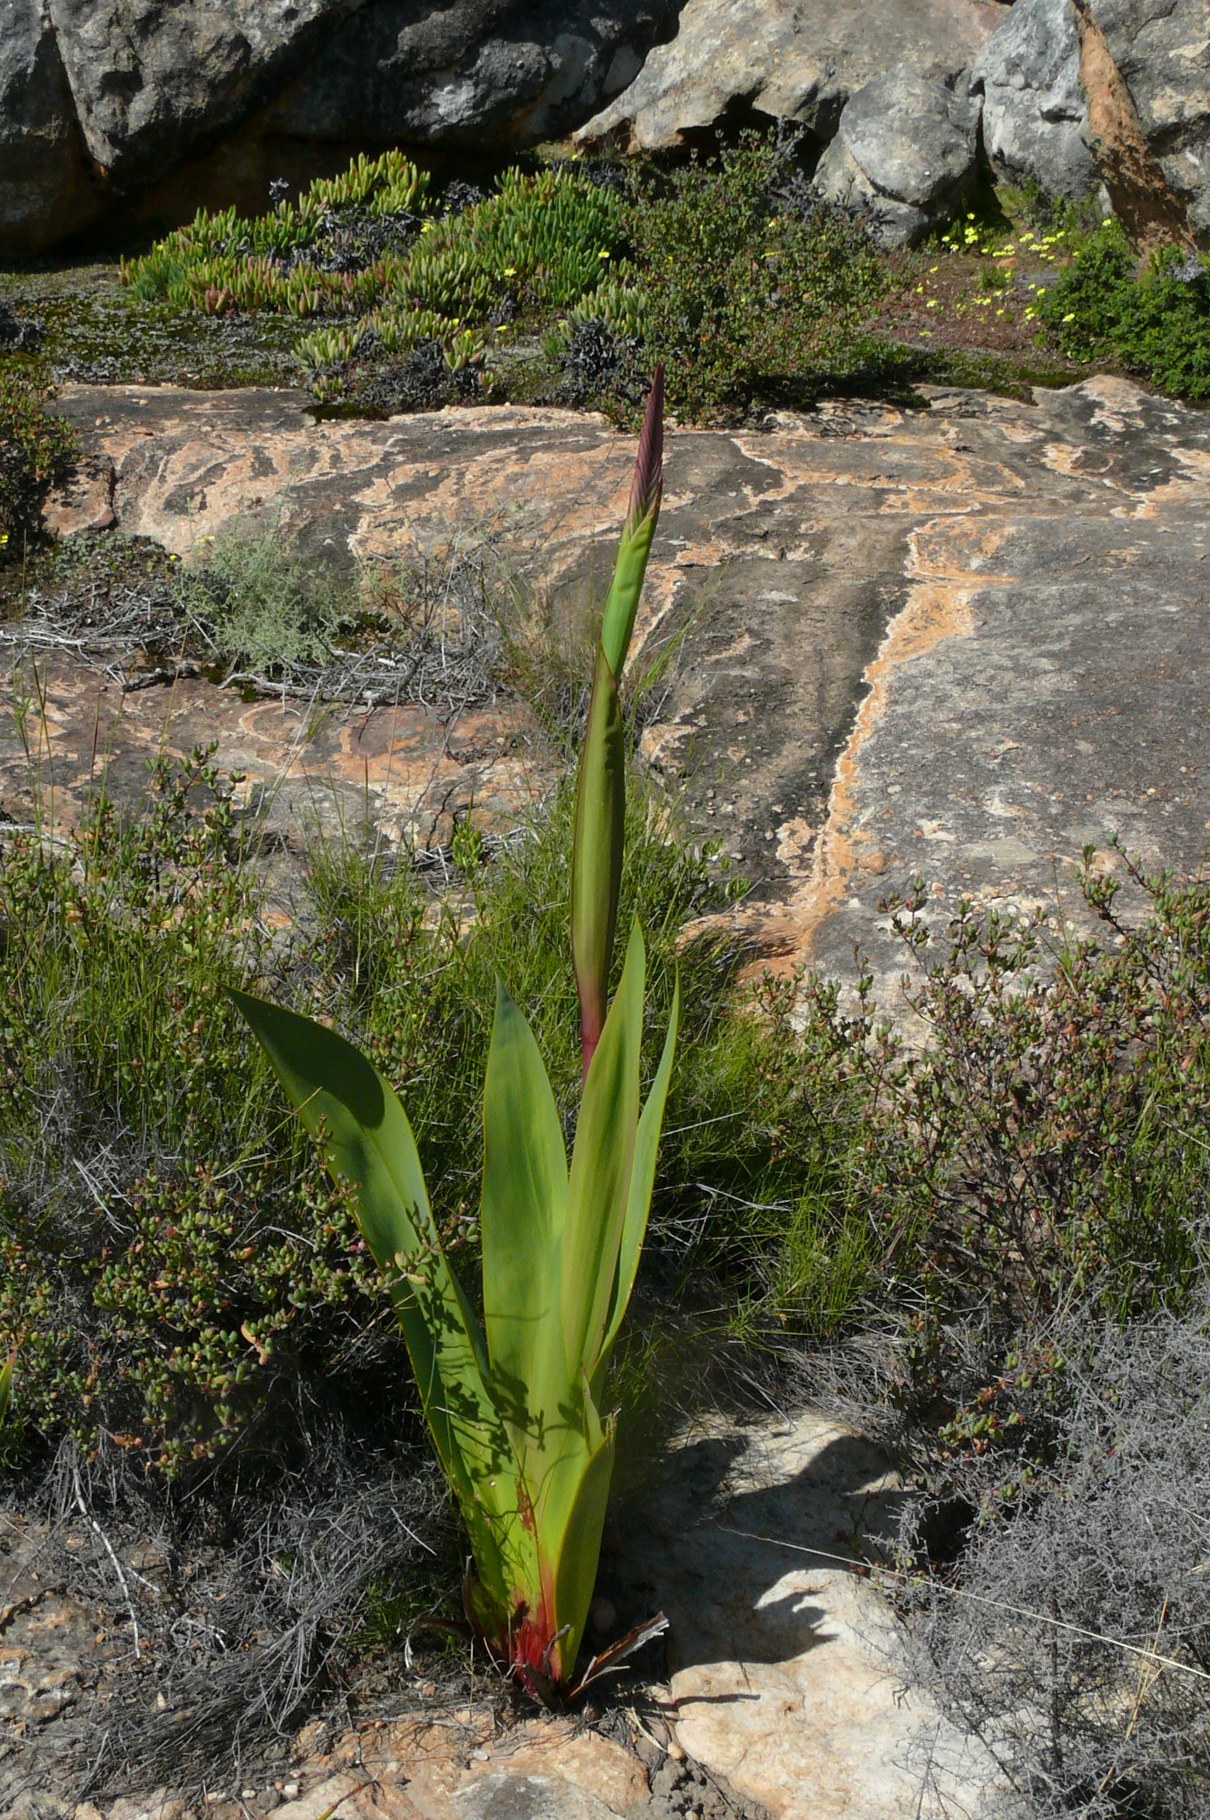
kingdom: Plantae
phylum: Tracheophyta
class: Liliopsida
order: Asparagales
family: Iridaceae
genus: Watsonia
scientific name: Watsonia vanderspuyae
